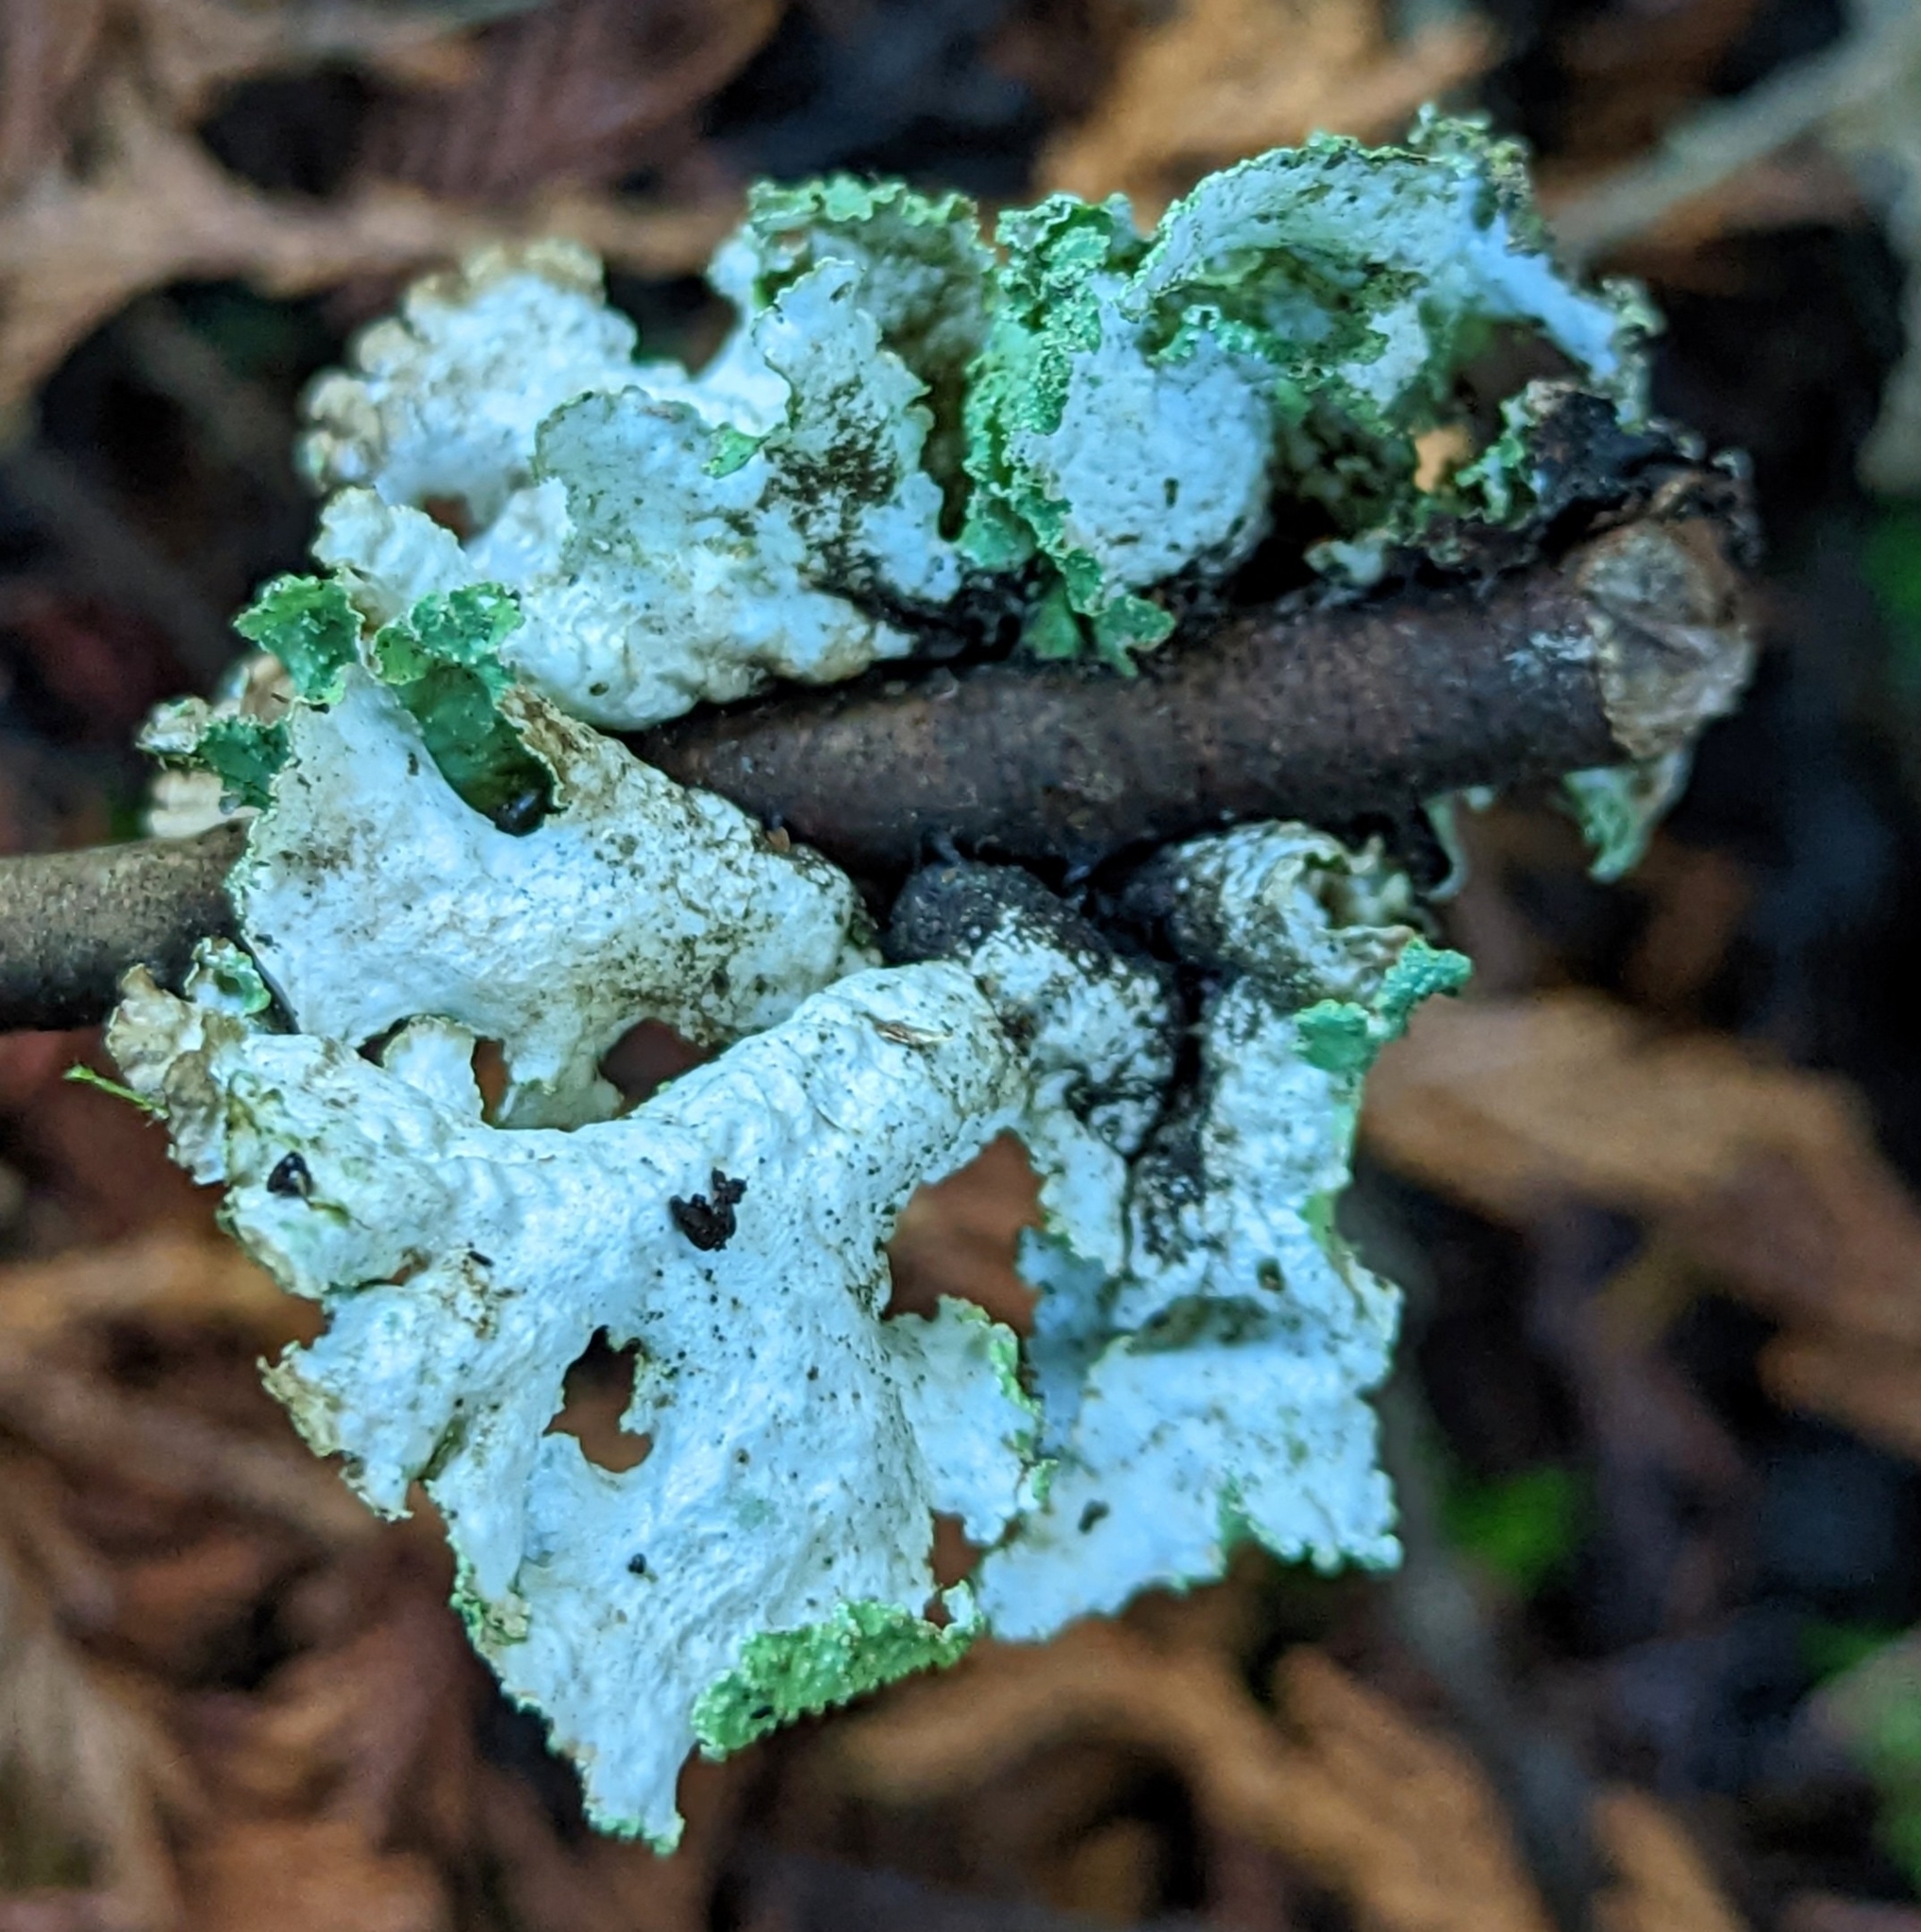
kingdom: Fungi
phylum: Ascomycota
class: Lecanoromycetes
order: Lecanorales
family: Parmeliaceae
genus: Platismatia
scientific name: Platismatia glauca
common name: Varied rag lichen
